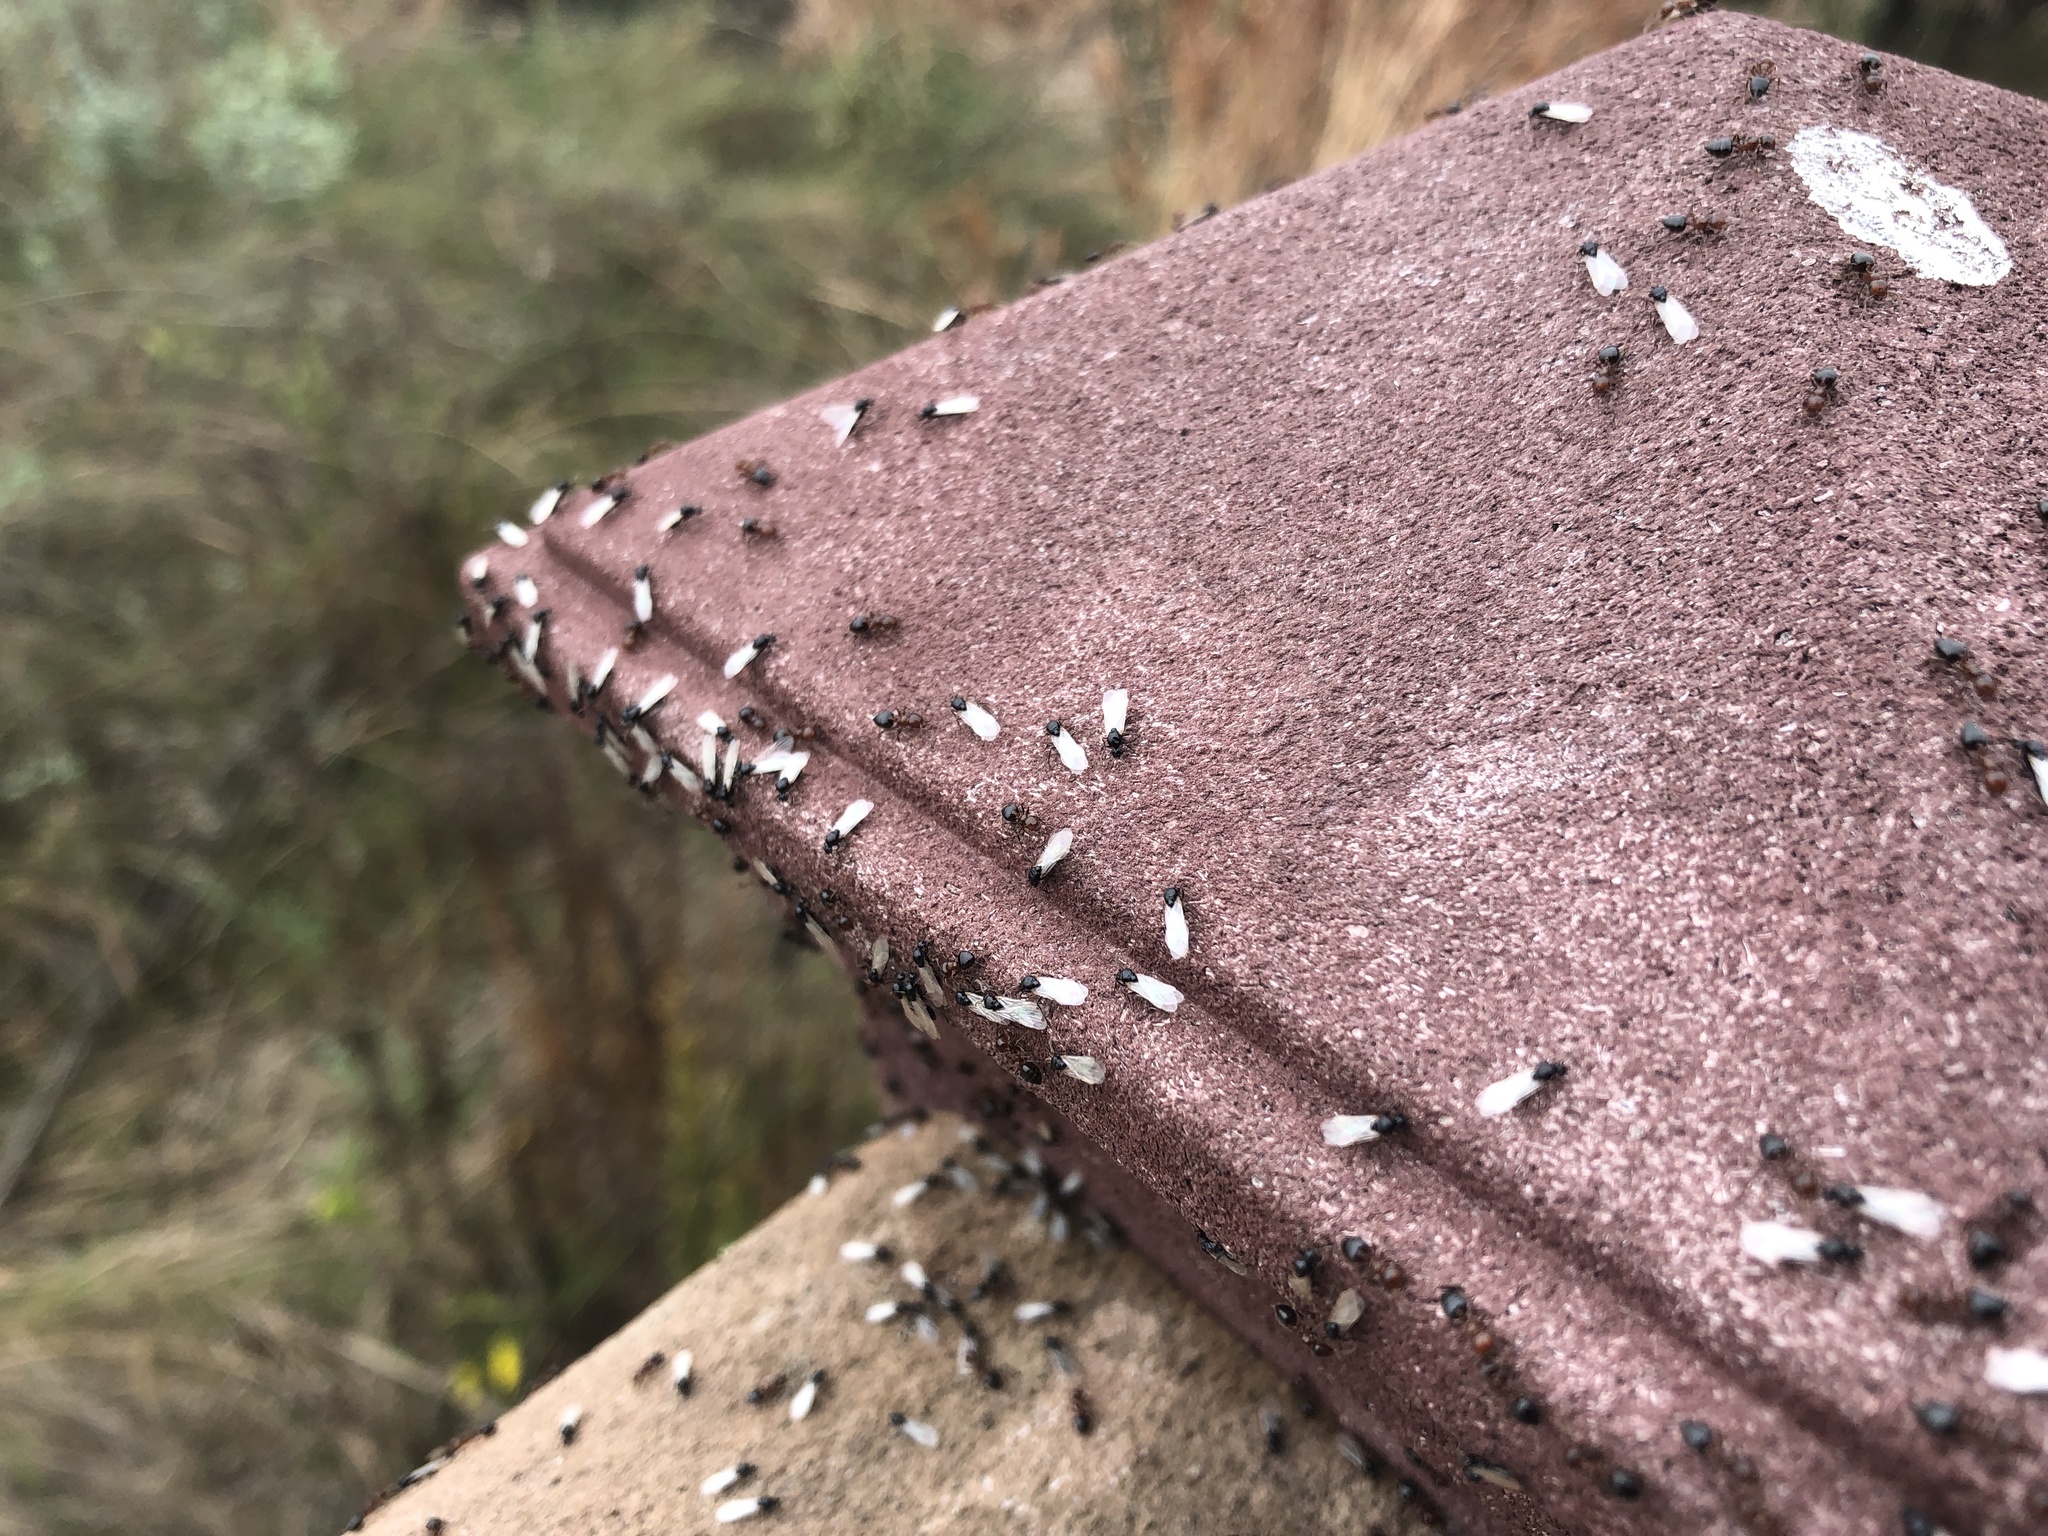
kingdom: Animalia
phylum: Arthropoda
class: Insecta
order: Hymenoptera
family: Formicidae
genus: Crematogaster
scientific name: Crematogaster laeviuscula
